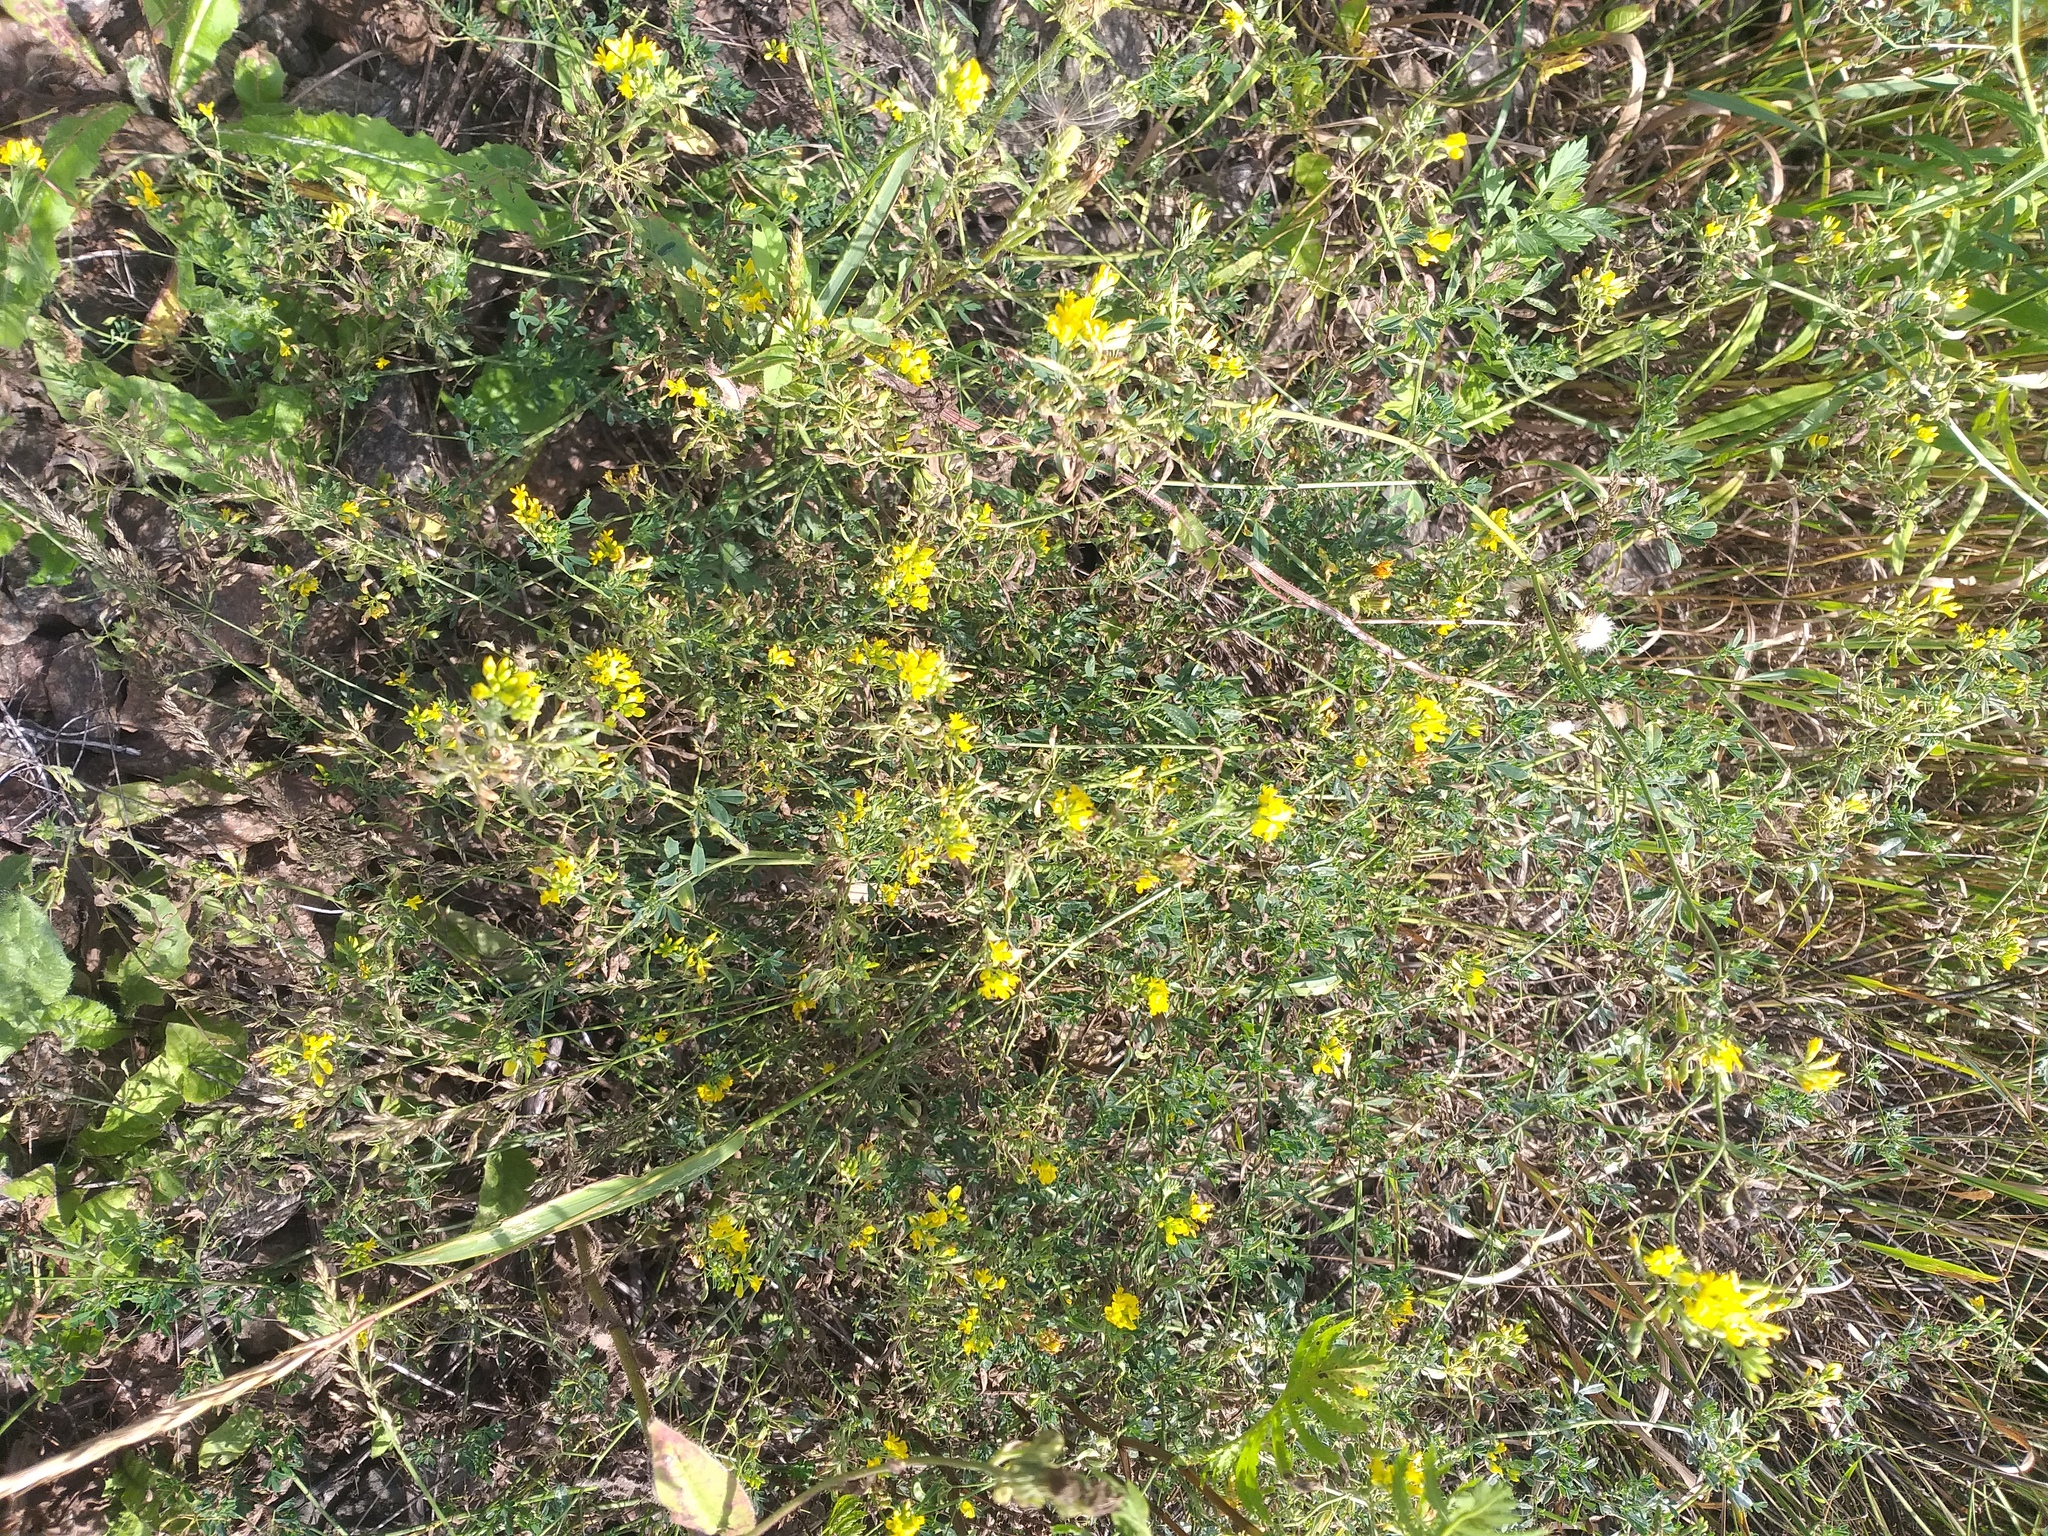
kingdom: Plantae
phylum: Tracheophyta
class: Magnoliopsida
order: Fabales
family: Fabaceae
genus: Medicago
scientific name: Medicago falcata
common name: Sickle medick
